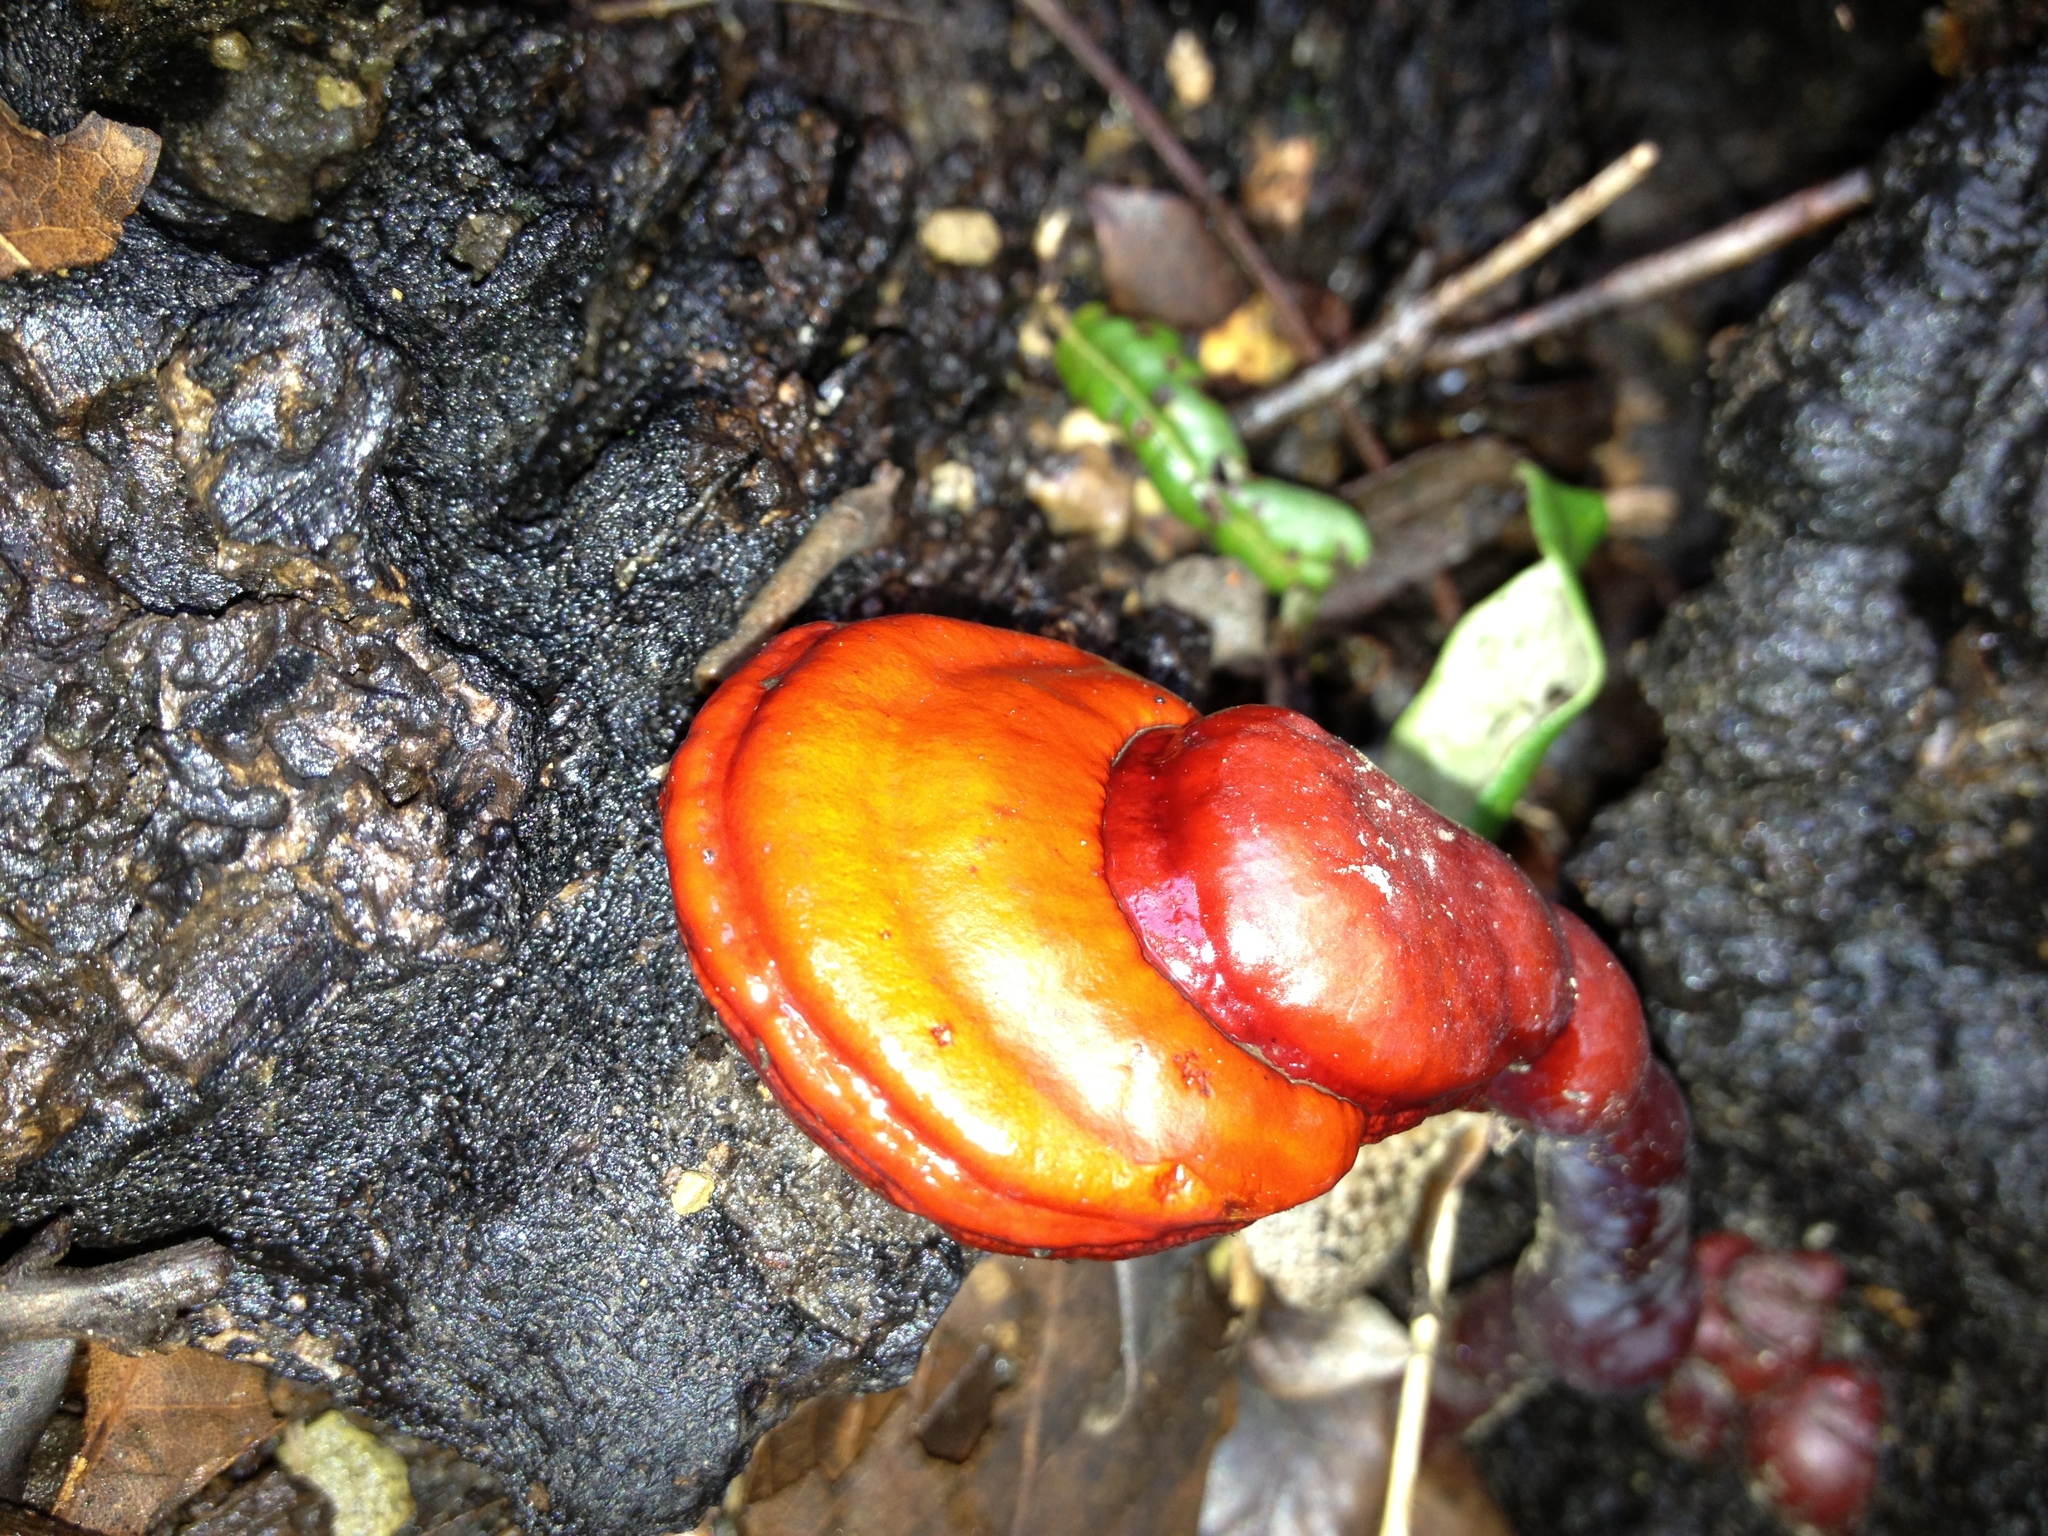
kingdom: Fungi
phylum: Basidiomycota
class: Agaricomycetes
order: Polyporales
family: Polyporaceae
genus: Ganoderma
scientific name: Ganoderma lucidum
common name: Lacquered bracket
